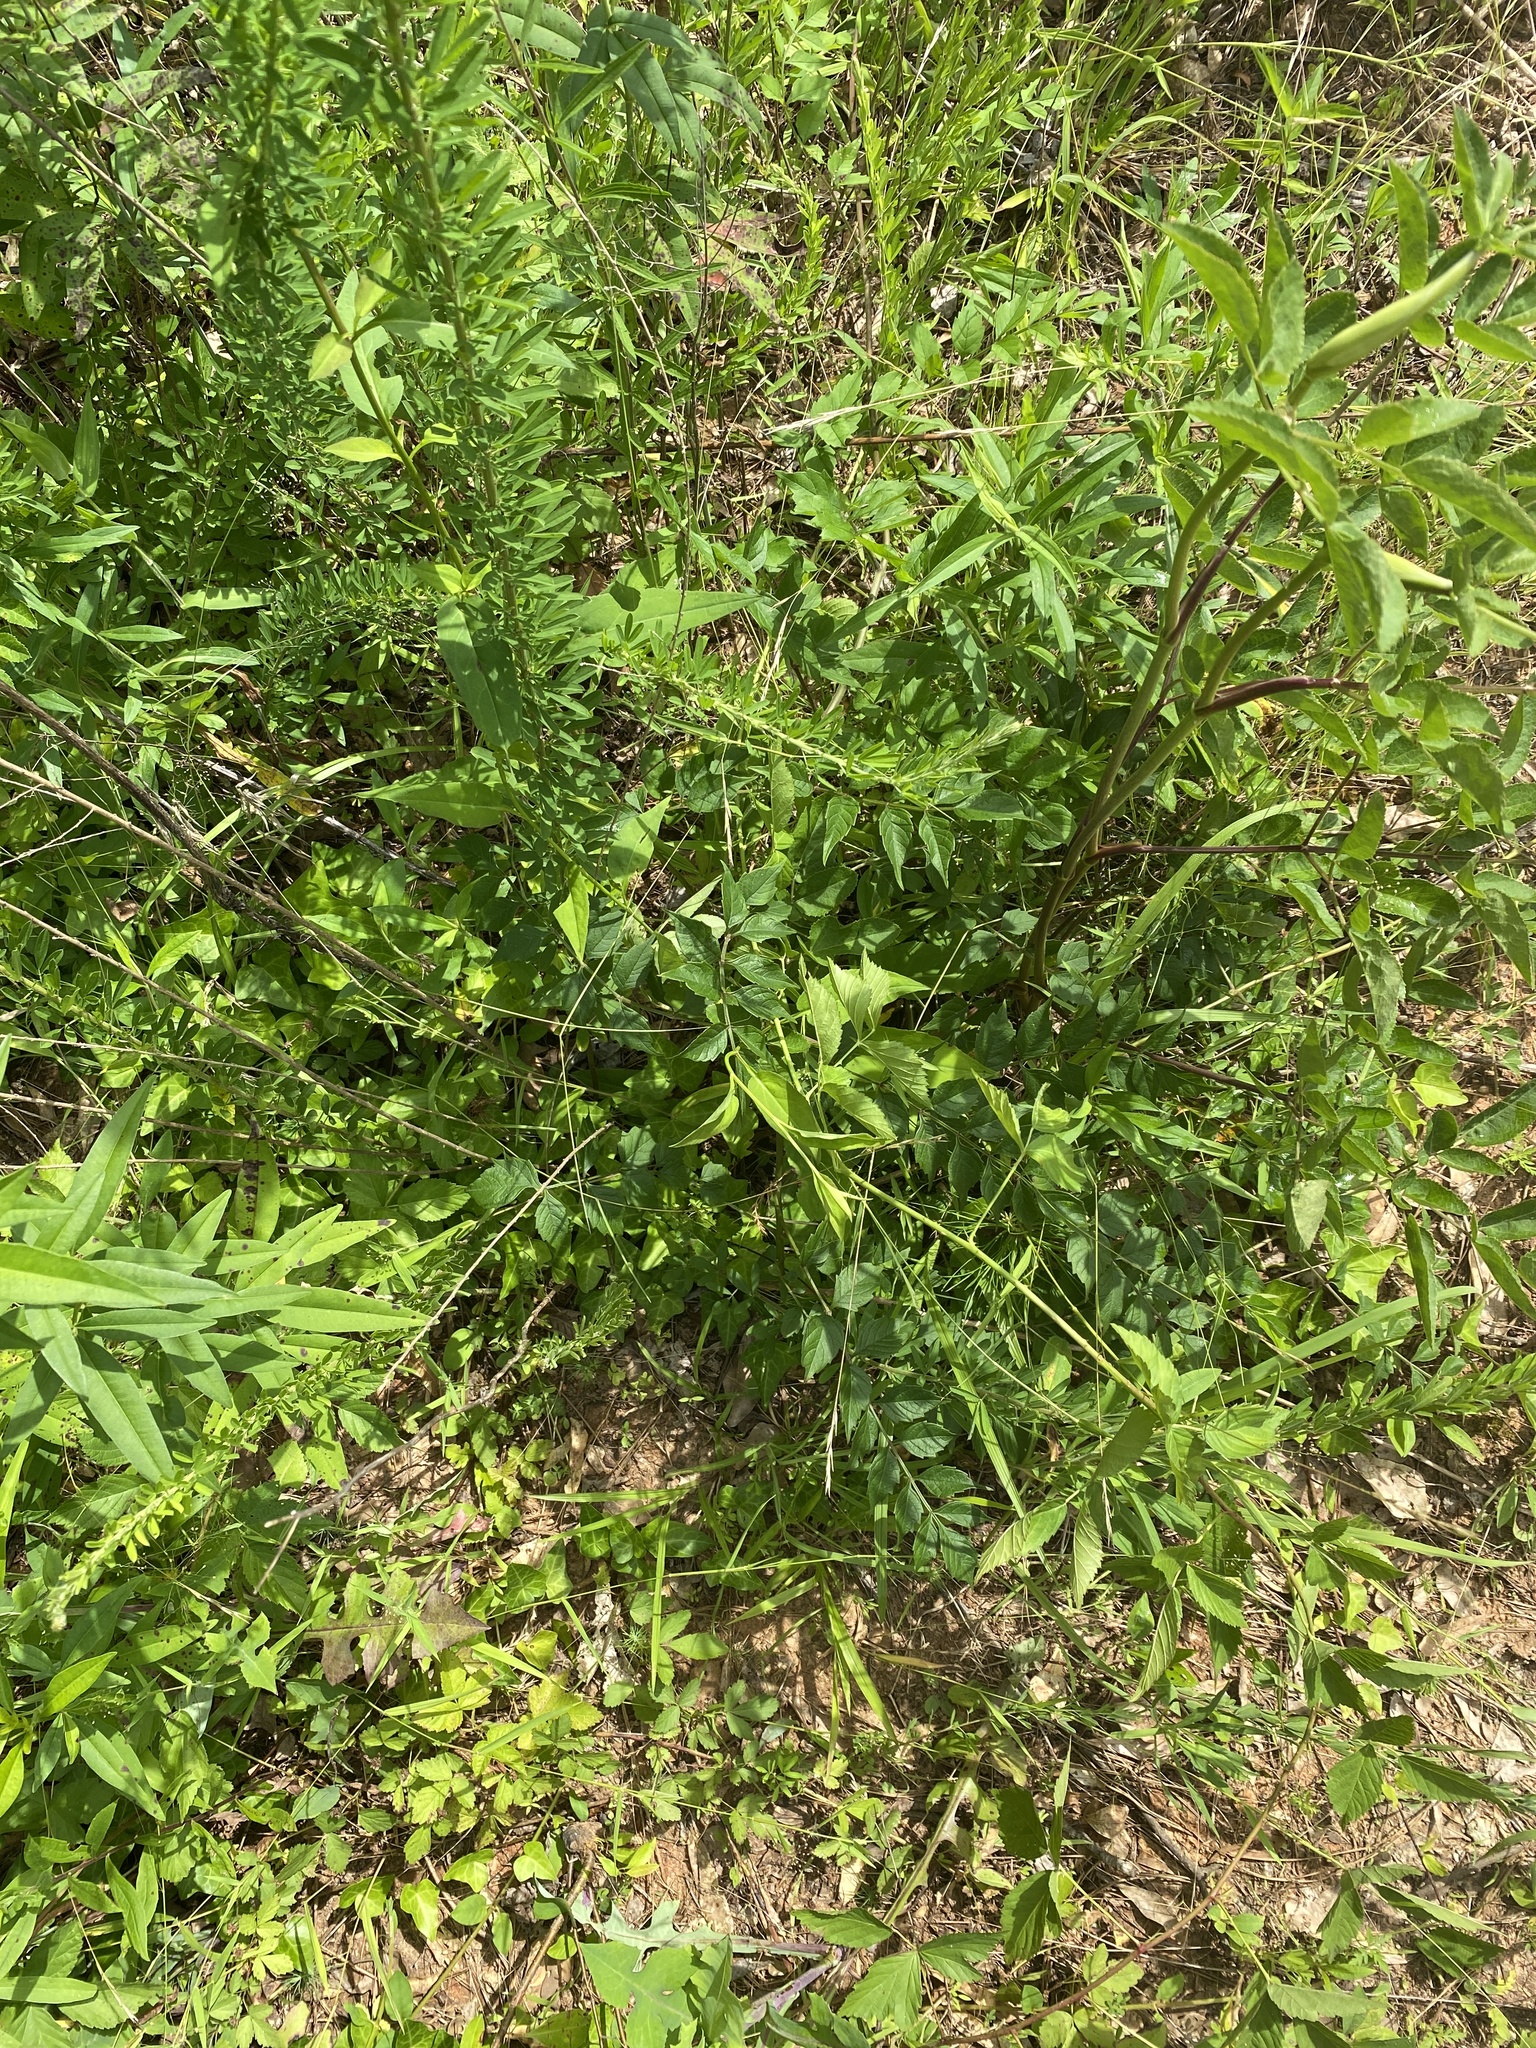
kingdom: Plantae
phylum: Tracheophyta
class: Magnoliopsida
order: Lamiales
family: Bignoniaceae
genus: Campsis
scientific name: Campsis radicans
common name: Trumpet-creeper
